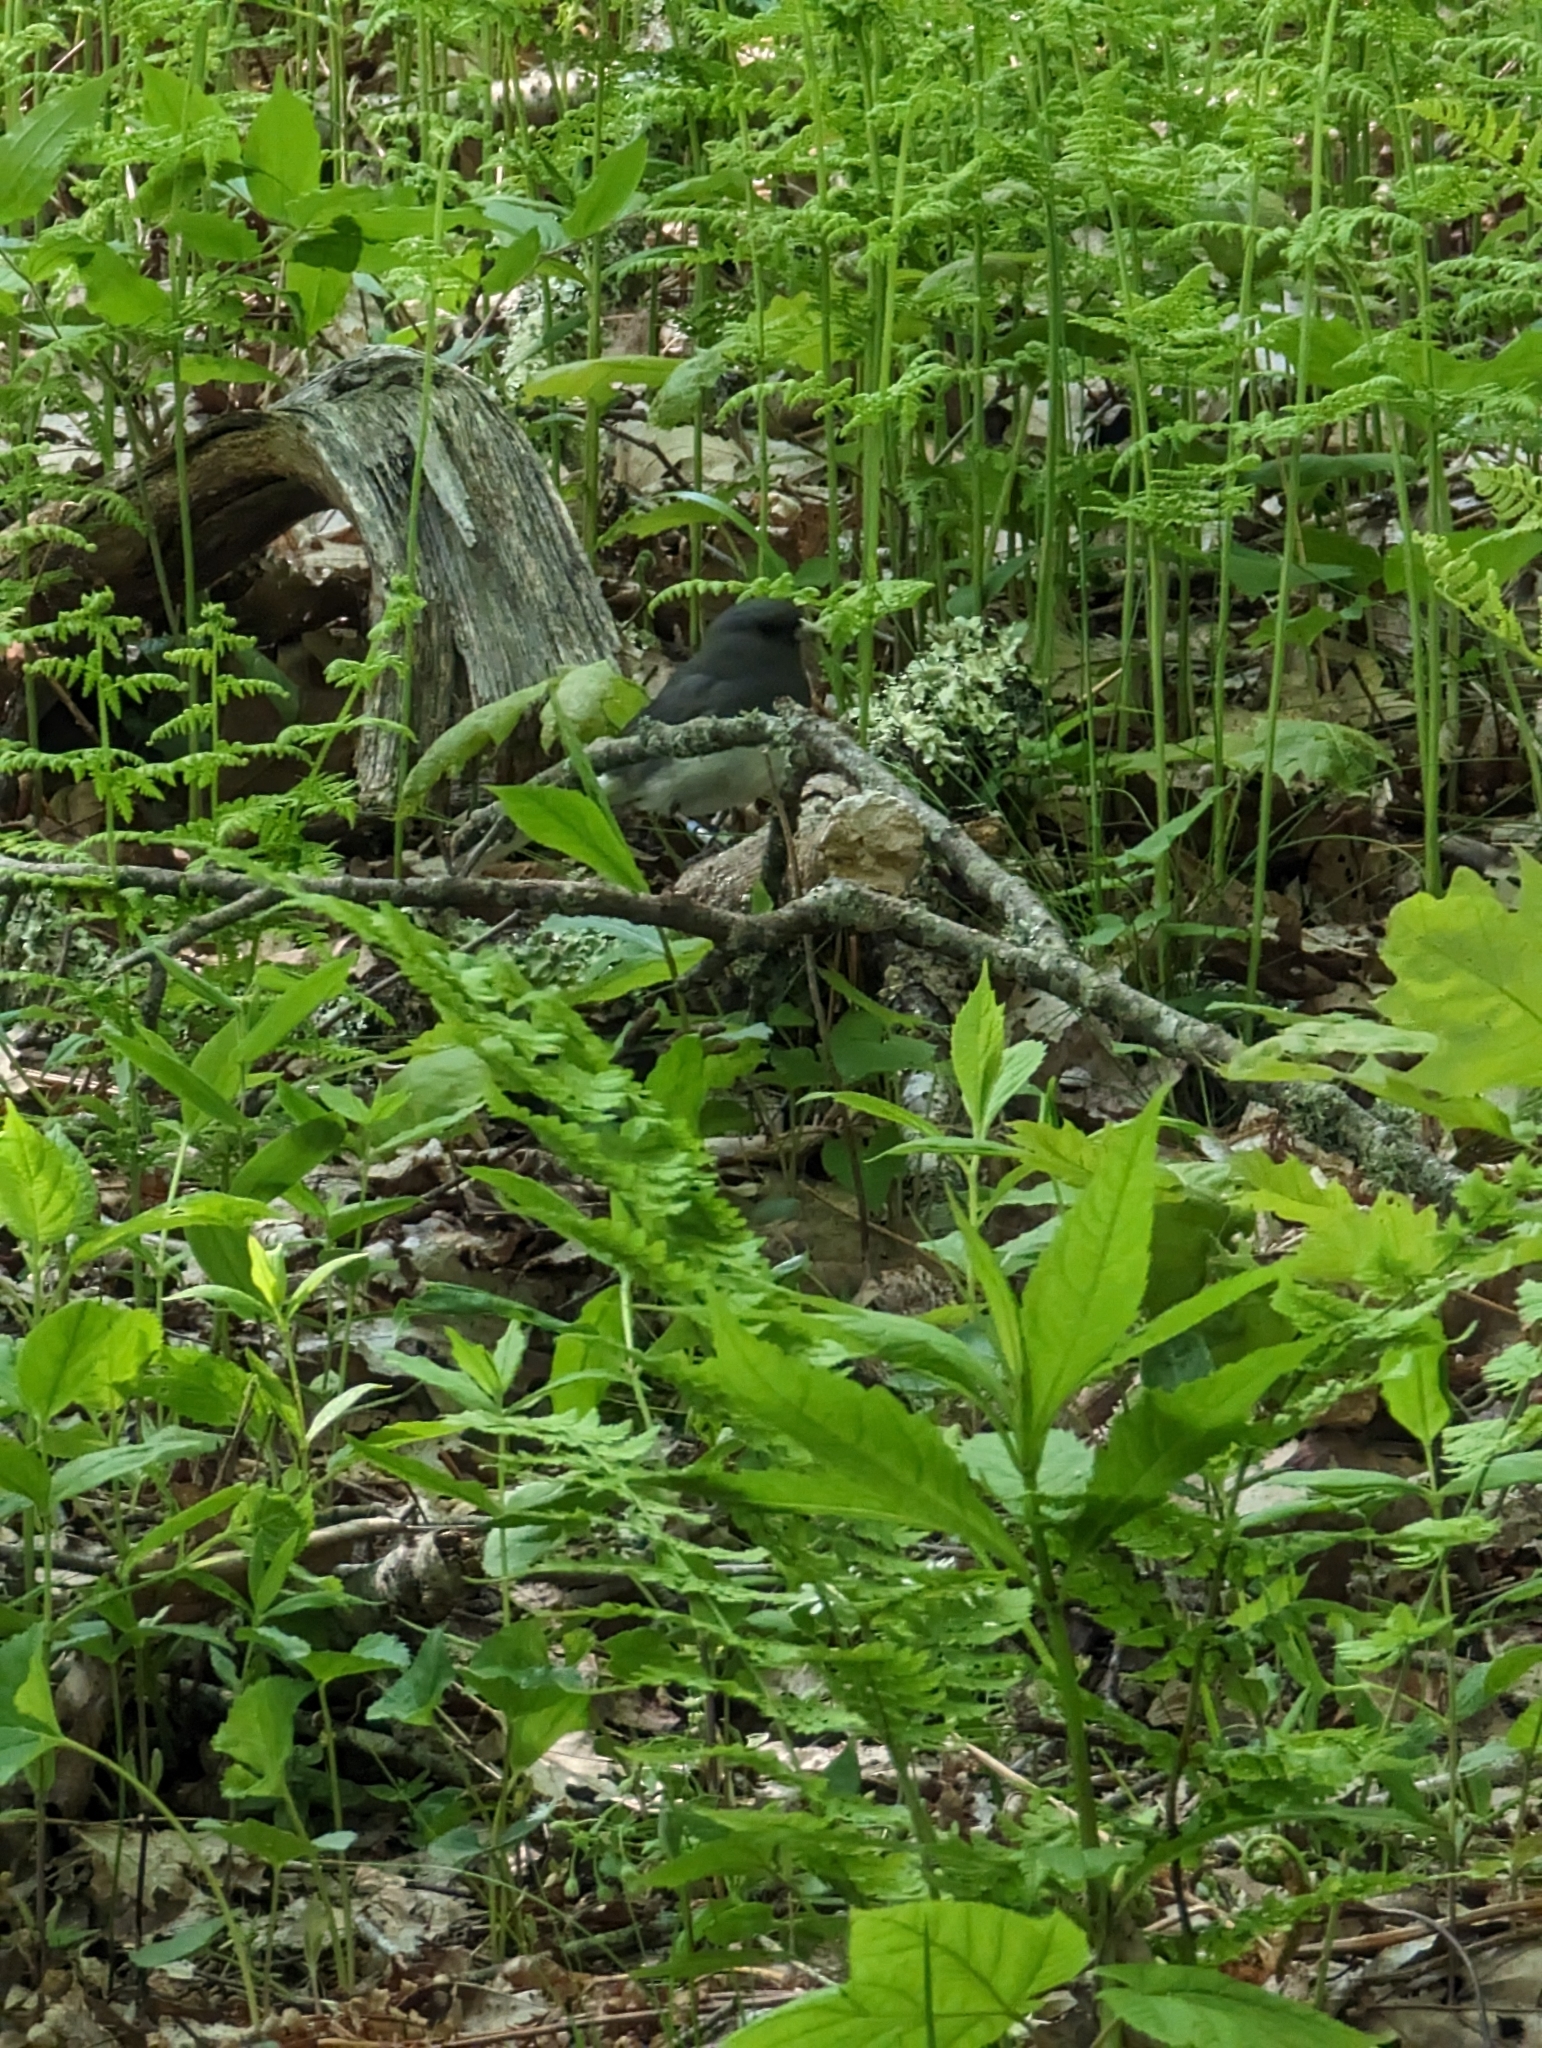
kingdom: Animalia
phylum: Chordata
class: Aves
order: Passeriformes
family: Passerellidae
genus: Junco
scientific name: Junco hyemalis
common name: Dark-eyed junco
